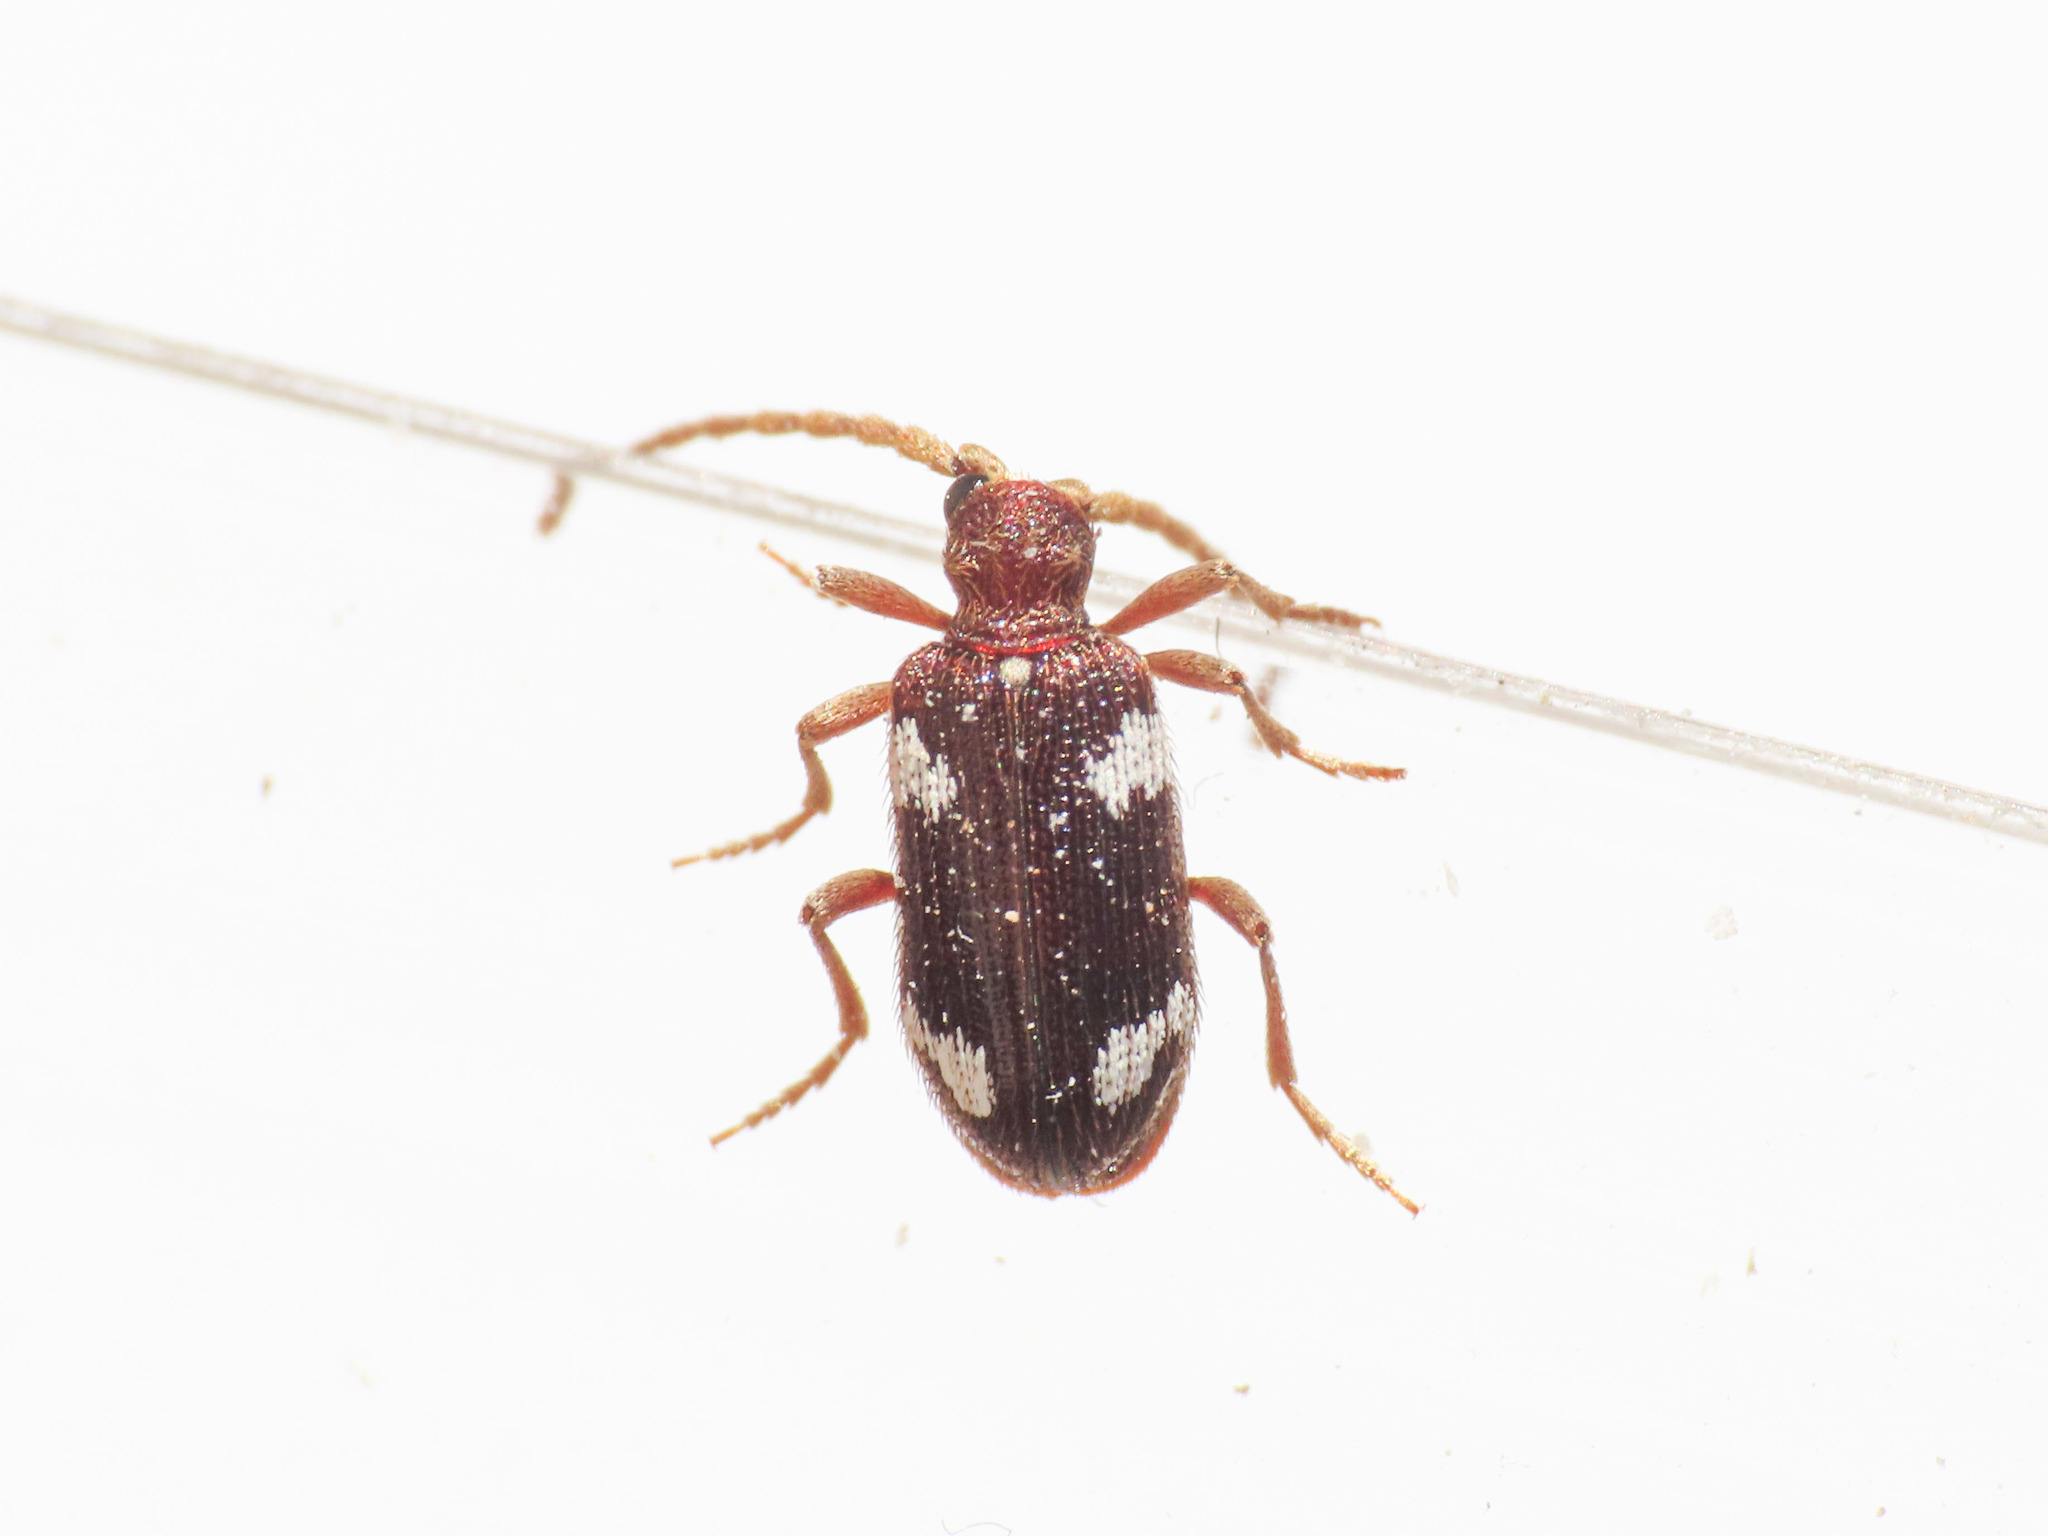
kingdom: Animalia
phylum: Arthropoda
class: Insecta
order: Coleoptera
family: Ptinidae
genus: Ptinus
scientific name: Ptinus sexpunctatus
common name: Six-spotted spider beetle
